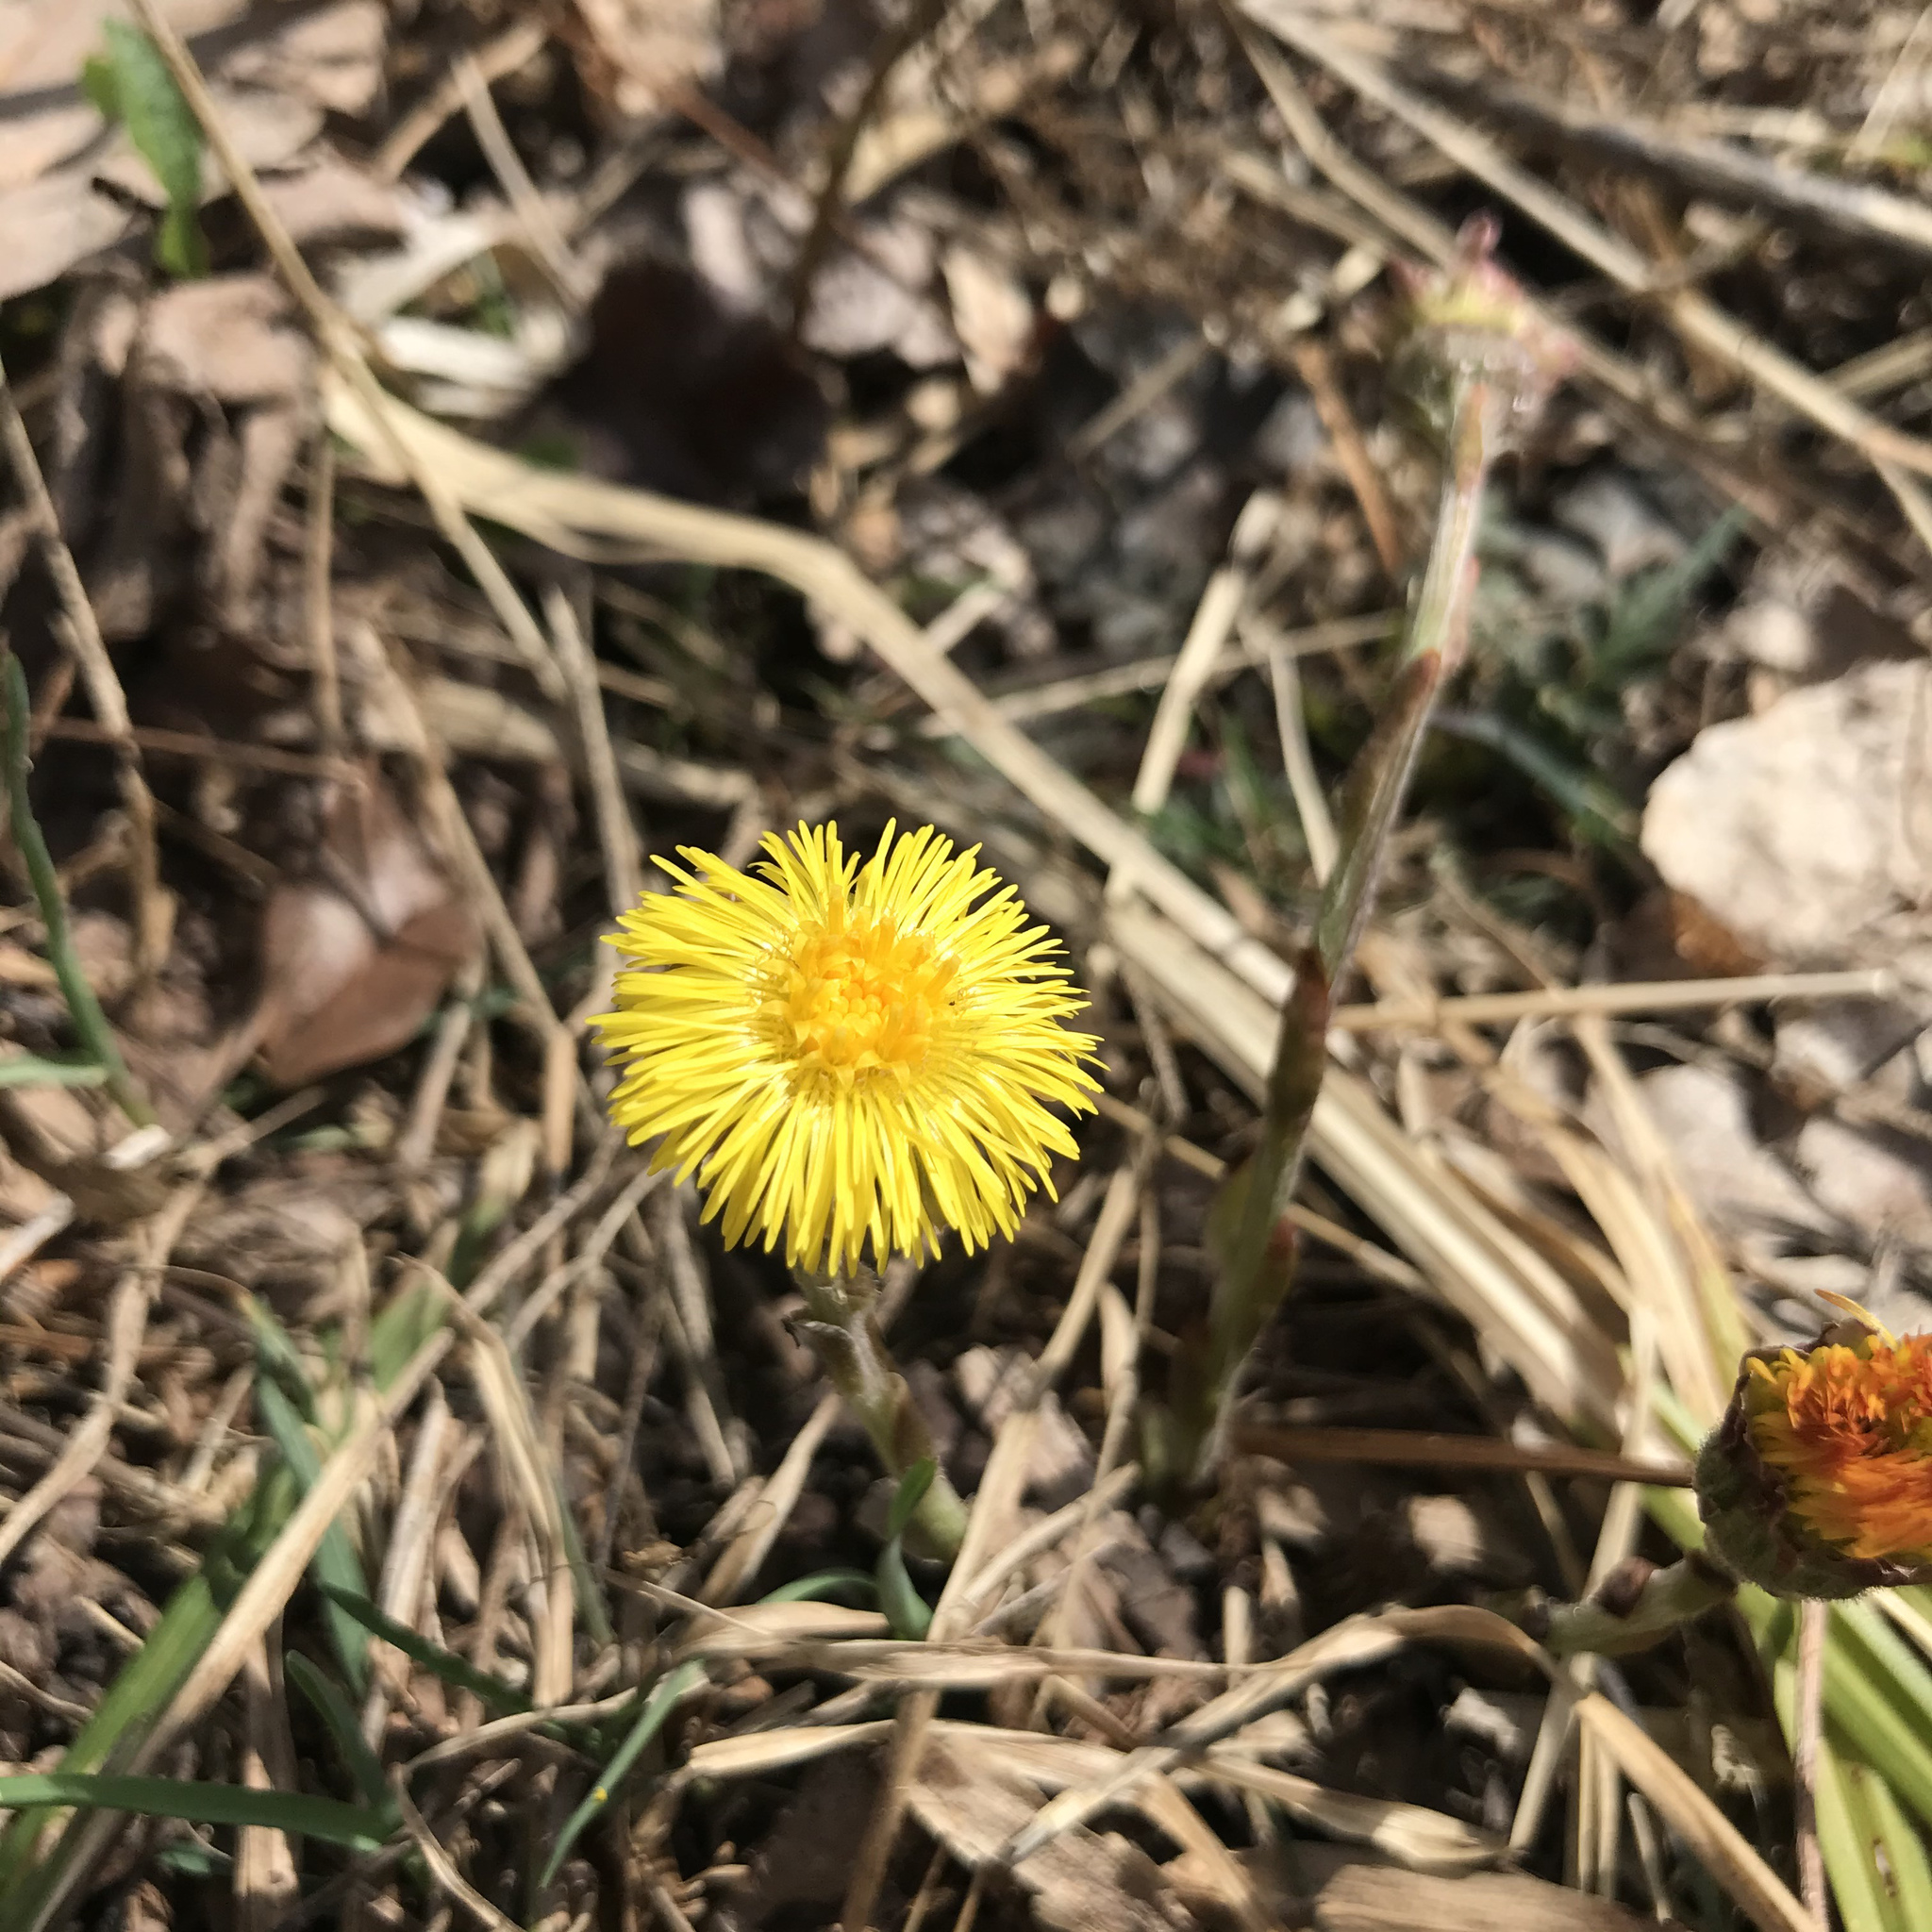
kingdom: Plantae
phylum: Tracheophyta
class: Magnoliopsida
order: Asterales
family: Asteraceae
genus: Tussilago
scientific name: Tussilago farfara
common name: Coltsfoot
